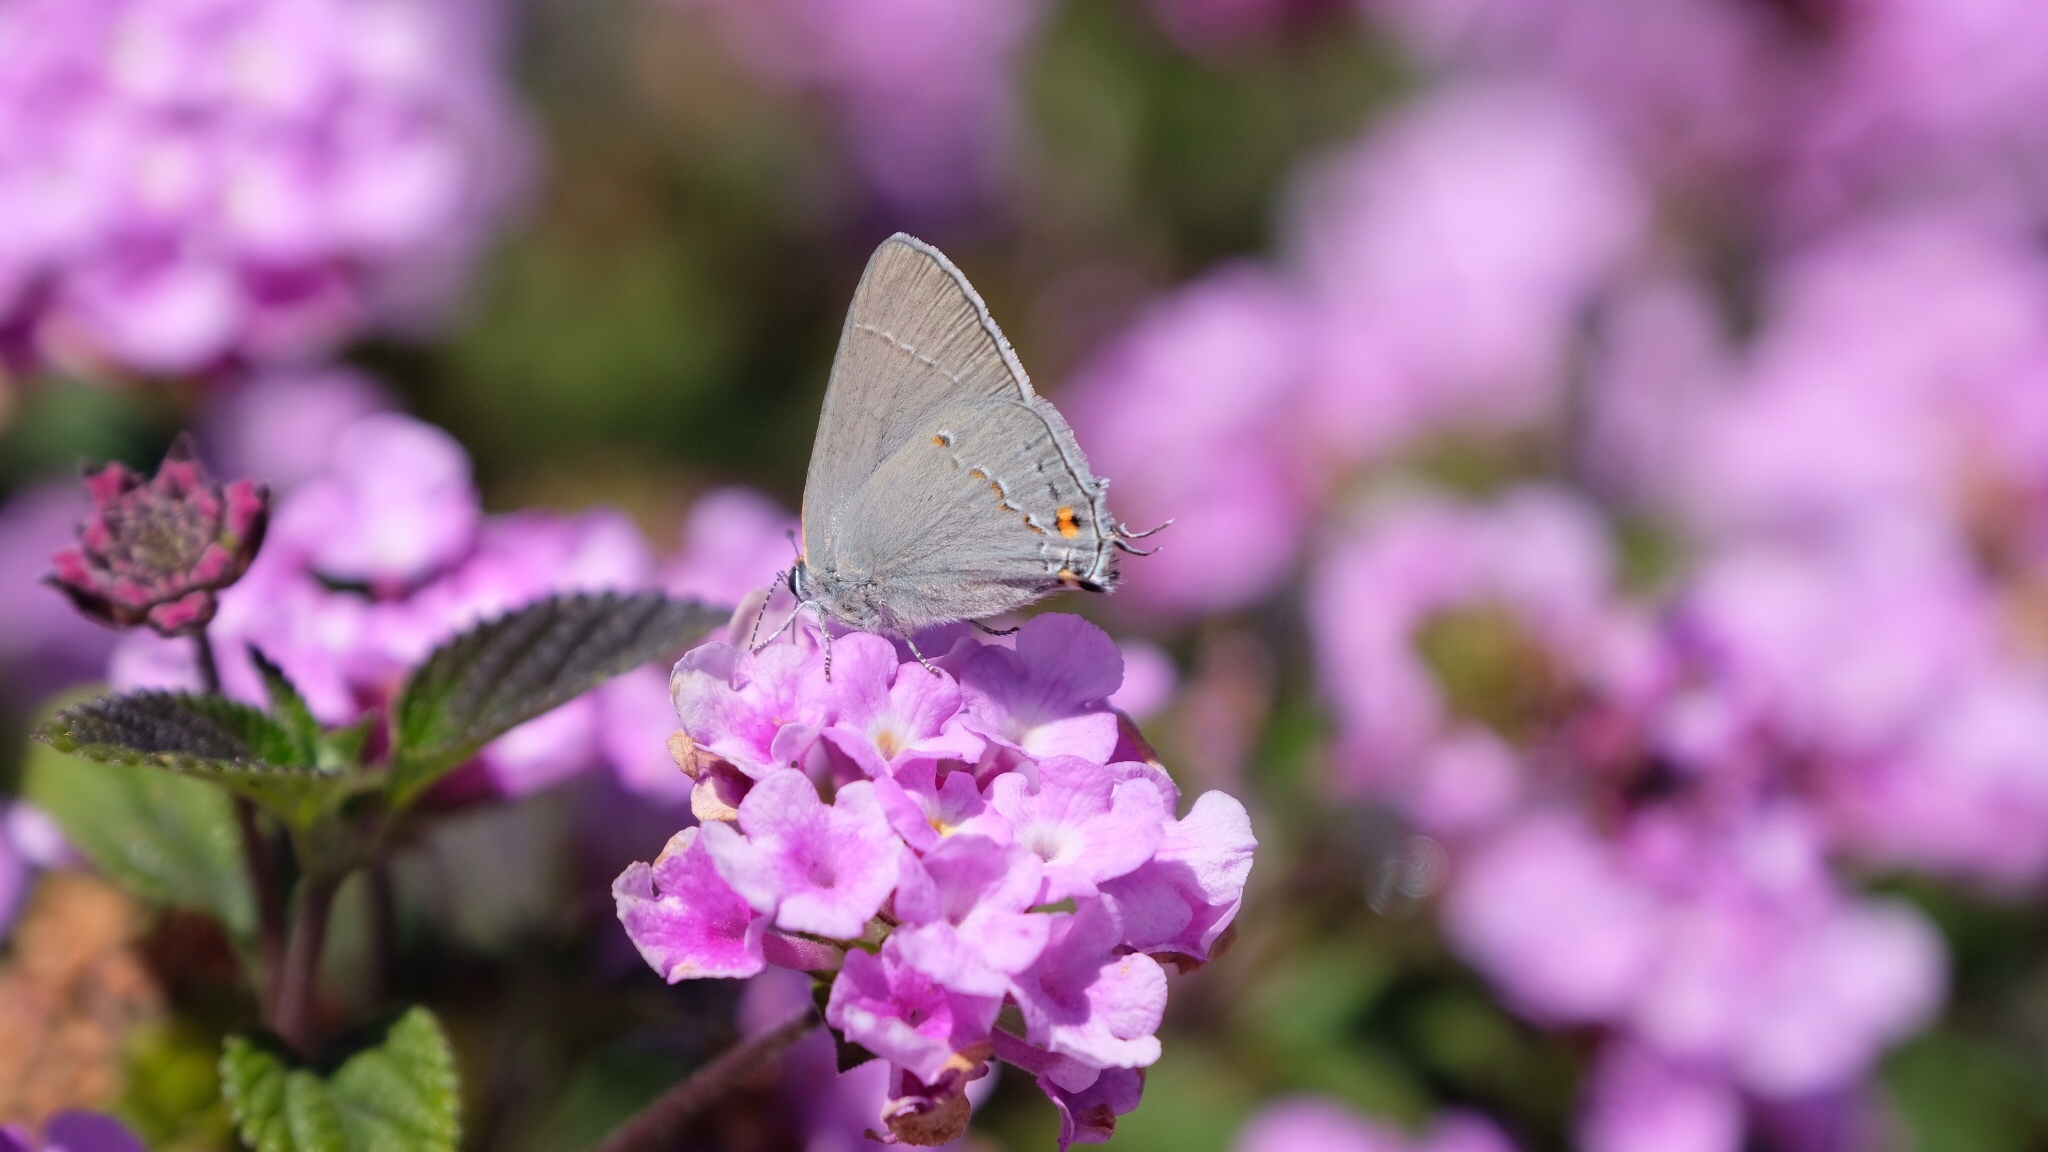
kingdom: Animalia
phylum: Arthropoda
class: Insecta
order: Lepidoptera
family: Lycaenidae
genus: Strymon
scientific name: Strymon melinus
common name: Gray hairstreak
